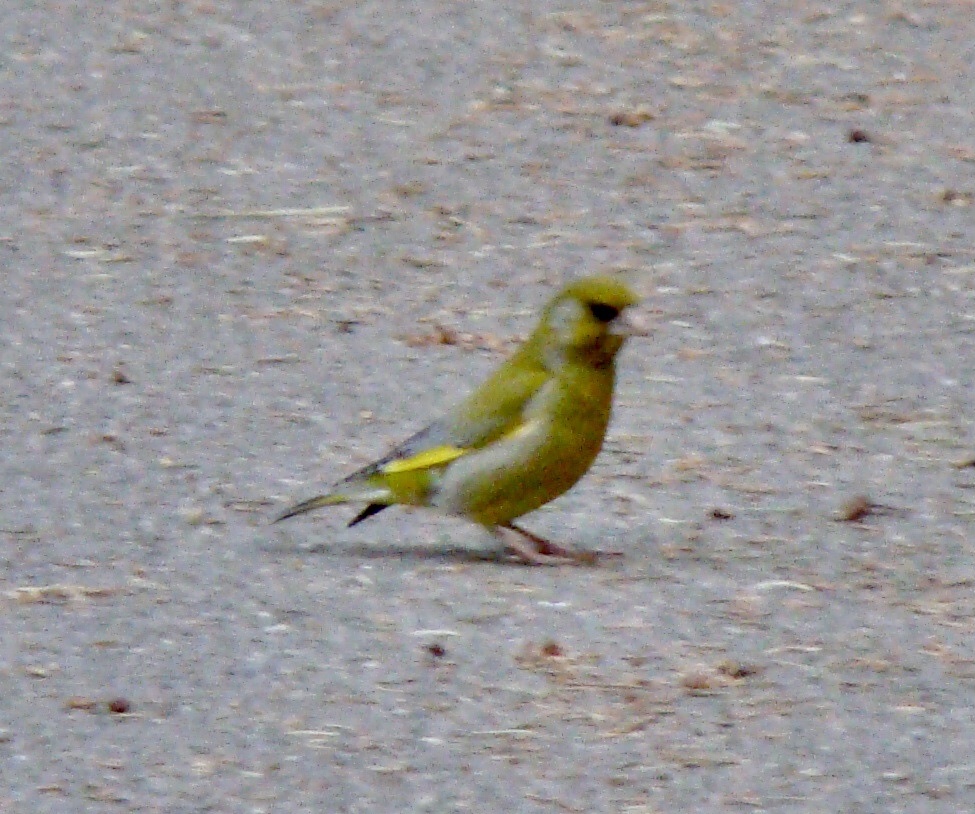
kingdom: Plantae
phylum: Tracheophyta
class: Liliopsida
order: Poales
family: Poaceae
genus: Chloris
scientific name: Chloris chloris
